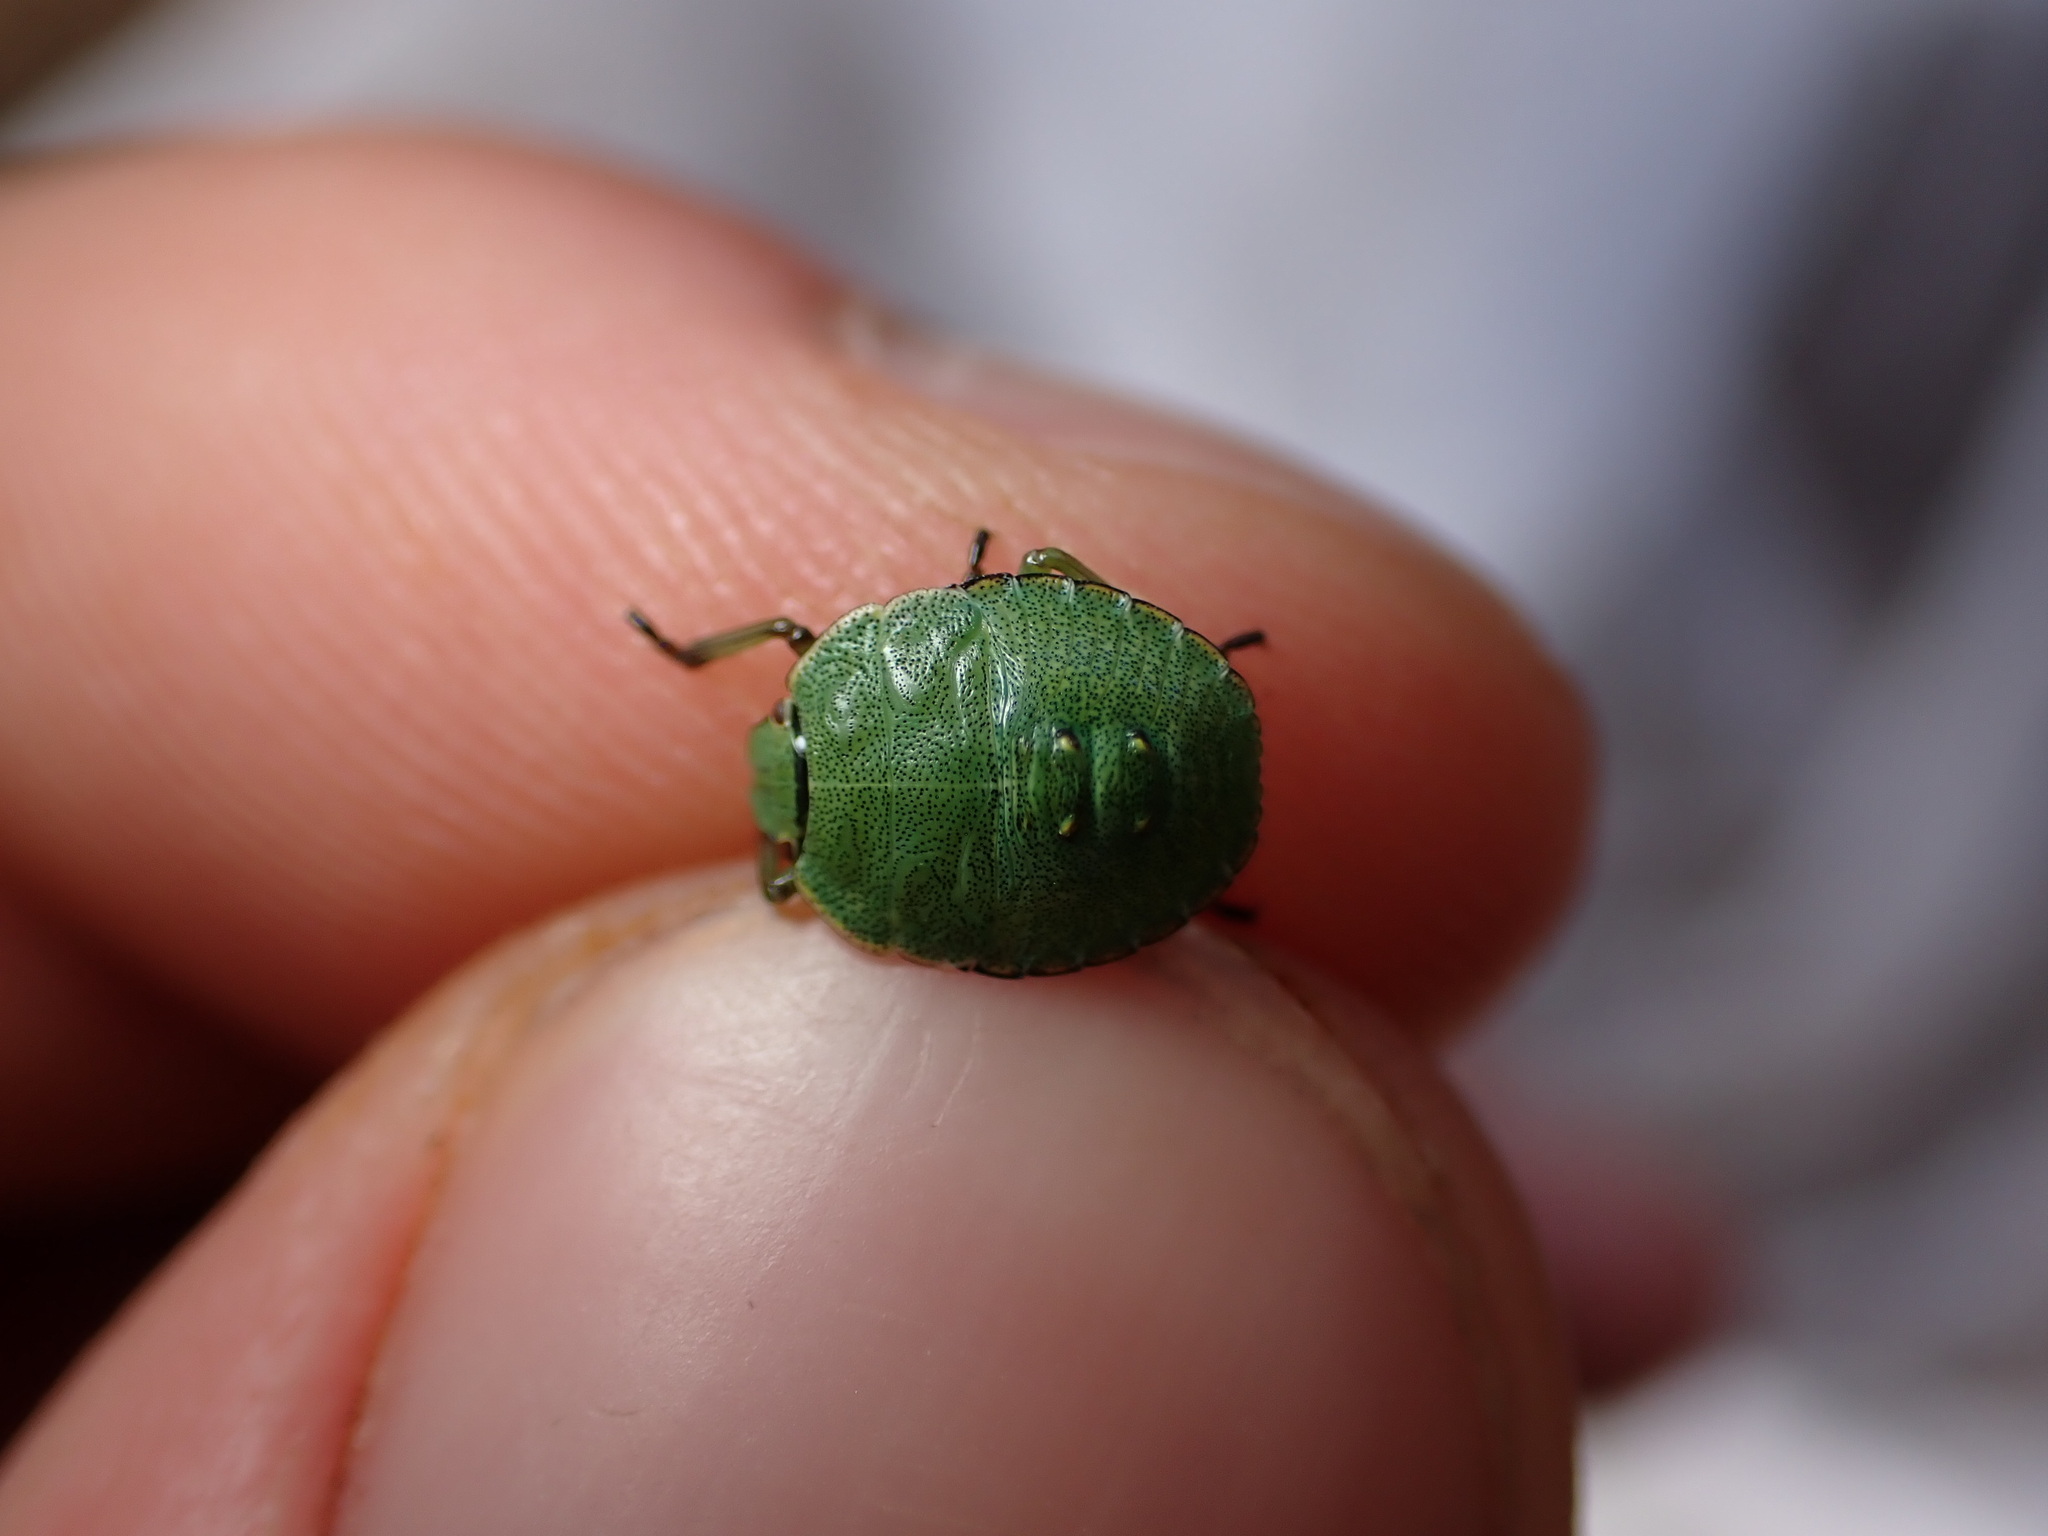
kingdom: Animalia
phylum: Arthropoda
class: Insecta
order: Hemiptera
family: Pentatomidae
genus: Palomena
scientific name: Palomena prasina
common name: Green shieldbug
